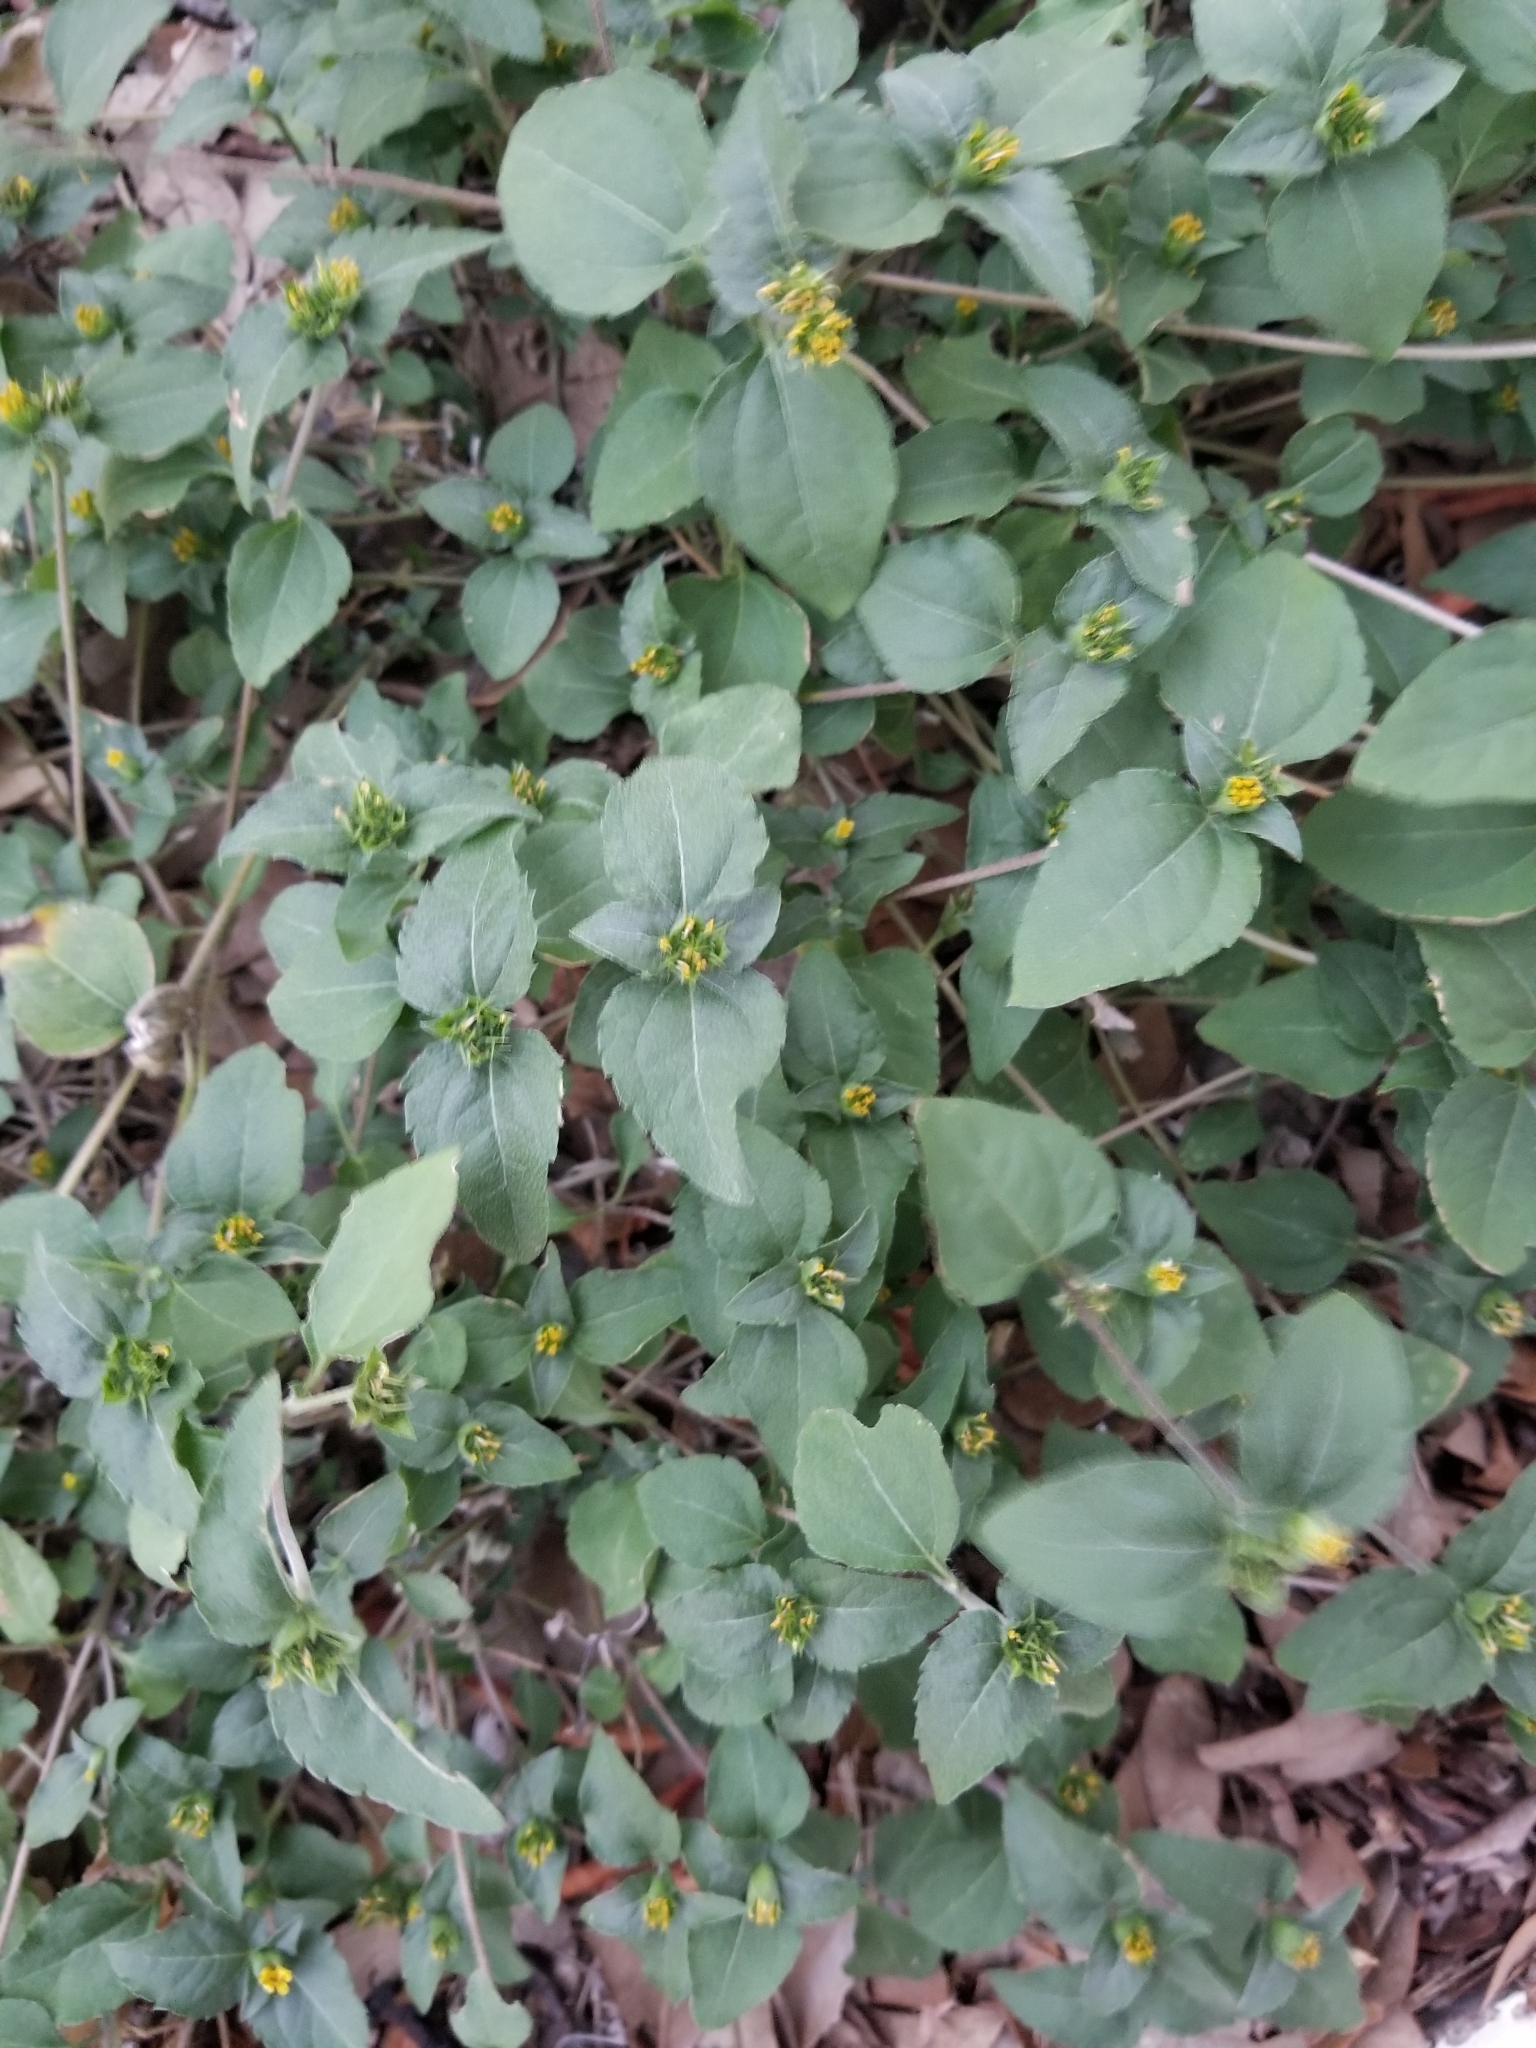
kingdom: Plantae
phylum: Tracheophyta
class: Magnoliopsida
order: Asterales
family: Asteraceae
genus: Calyptocarpus
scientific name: Calyptocarpus vialis
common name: Straggler daisy
